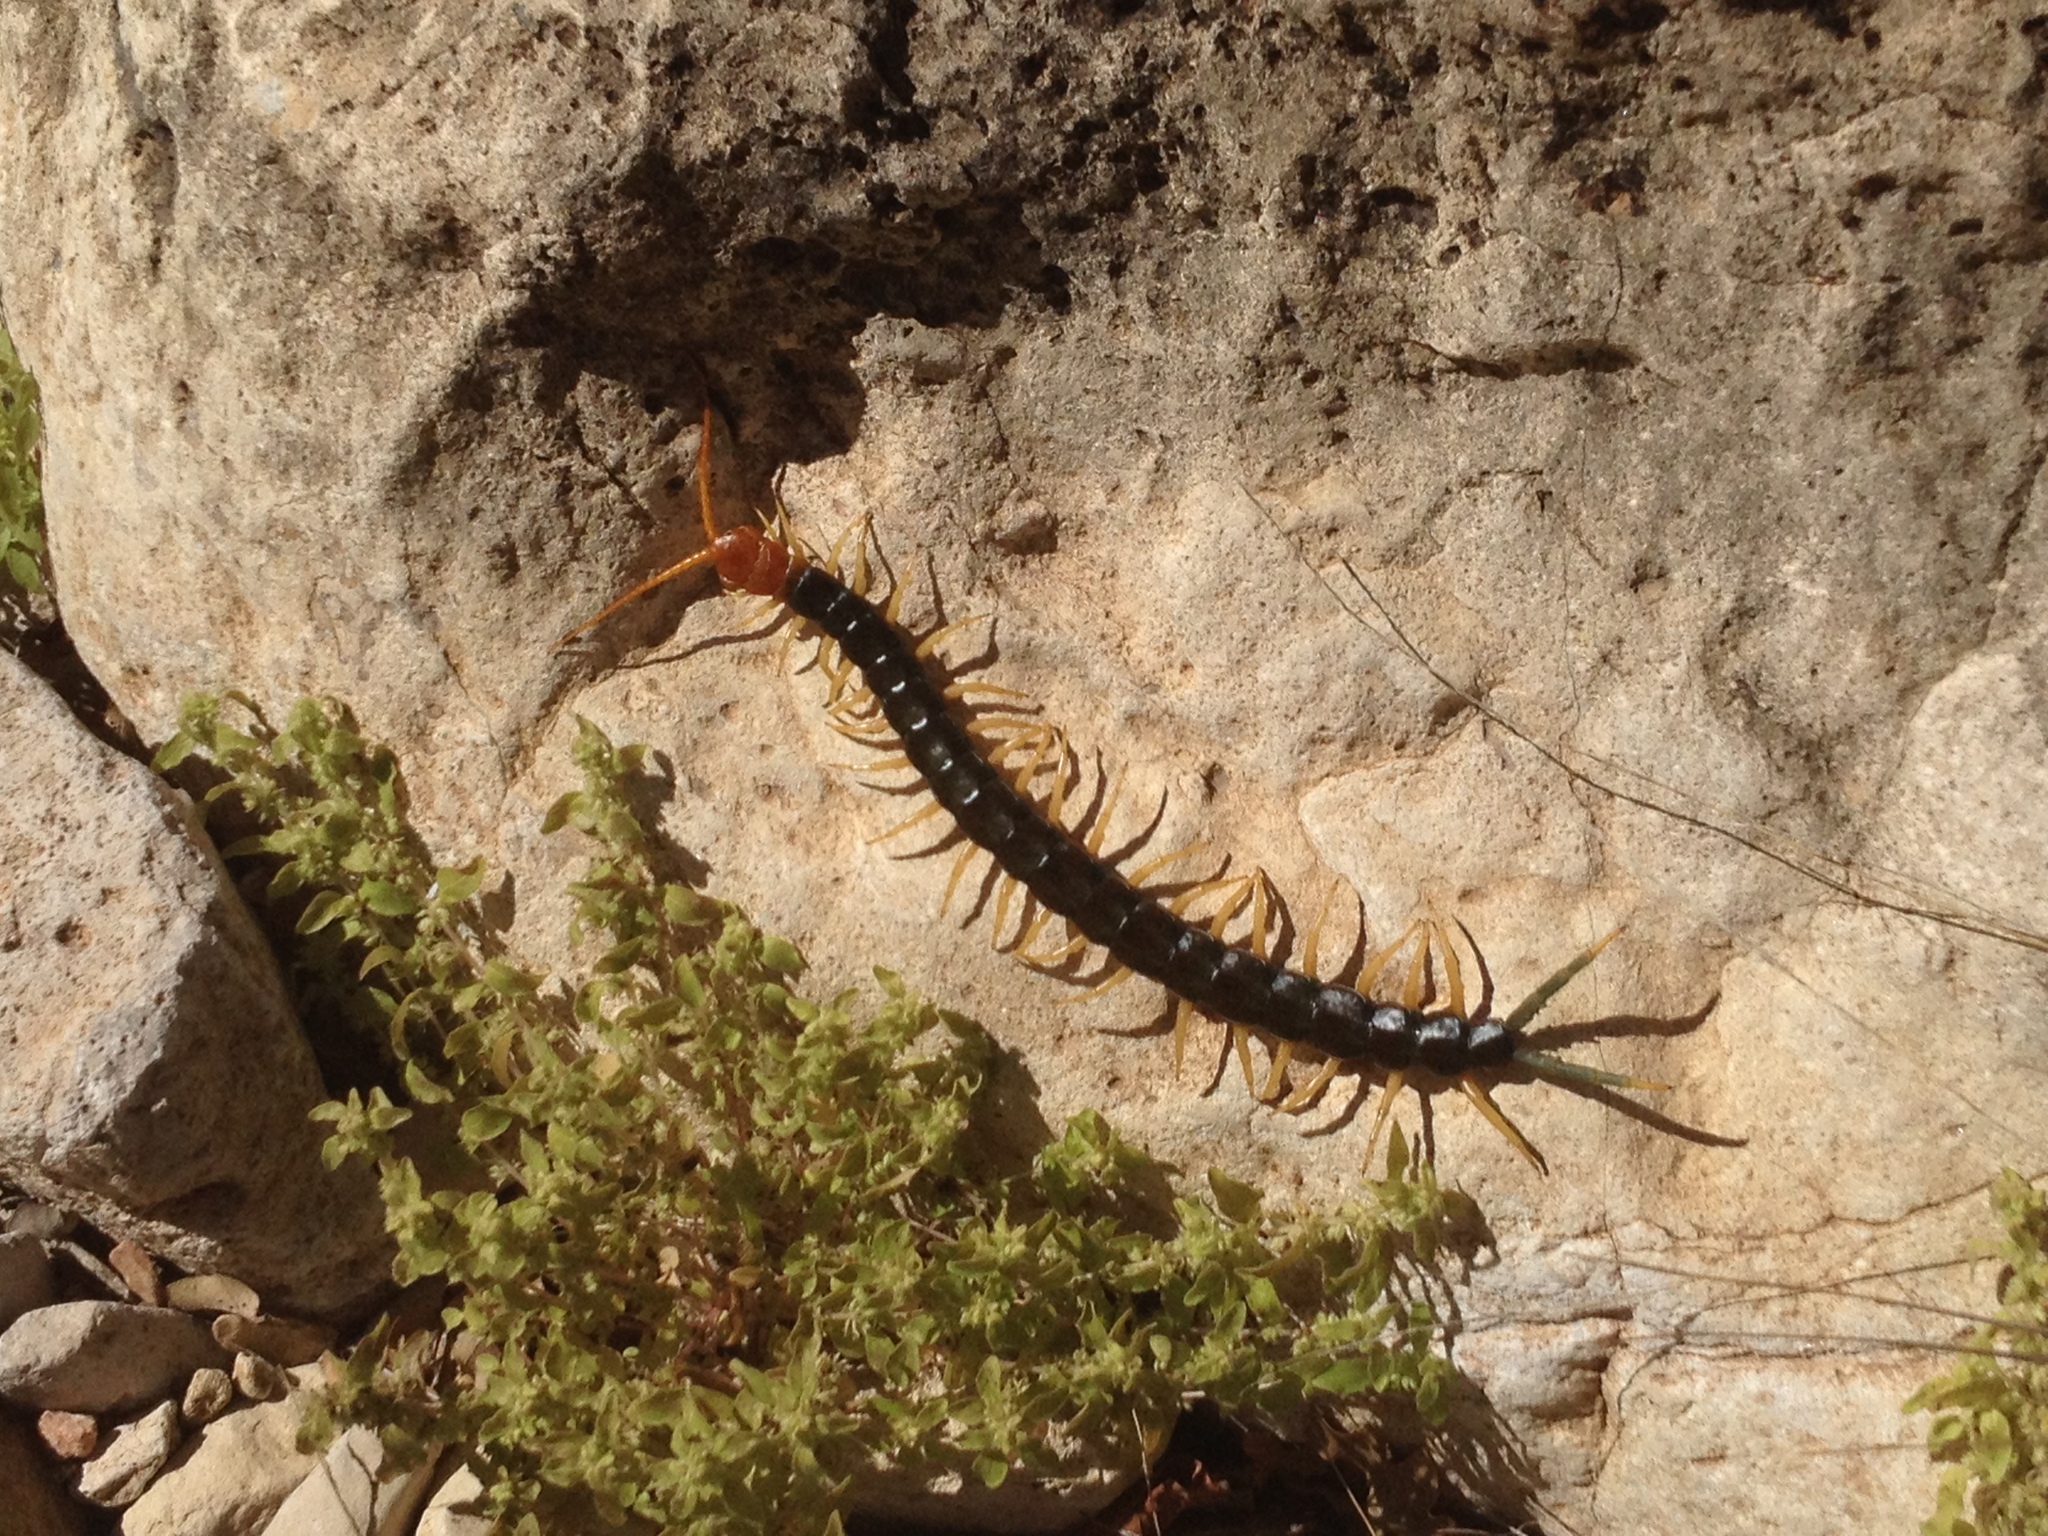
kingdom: Animalia
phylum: Arthropoda
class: Chilopoda
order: Scolopendromorpha
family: Scolopendridae
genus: Scolopendra
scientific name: Scolopendra heros
